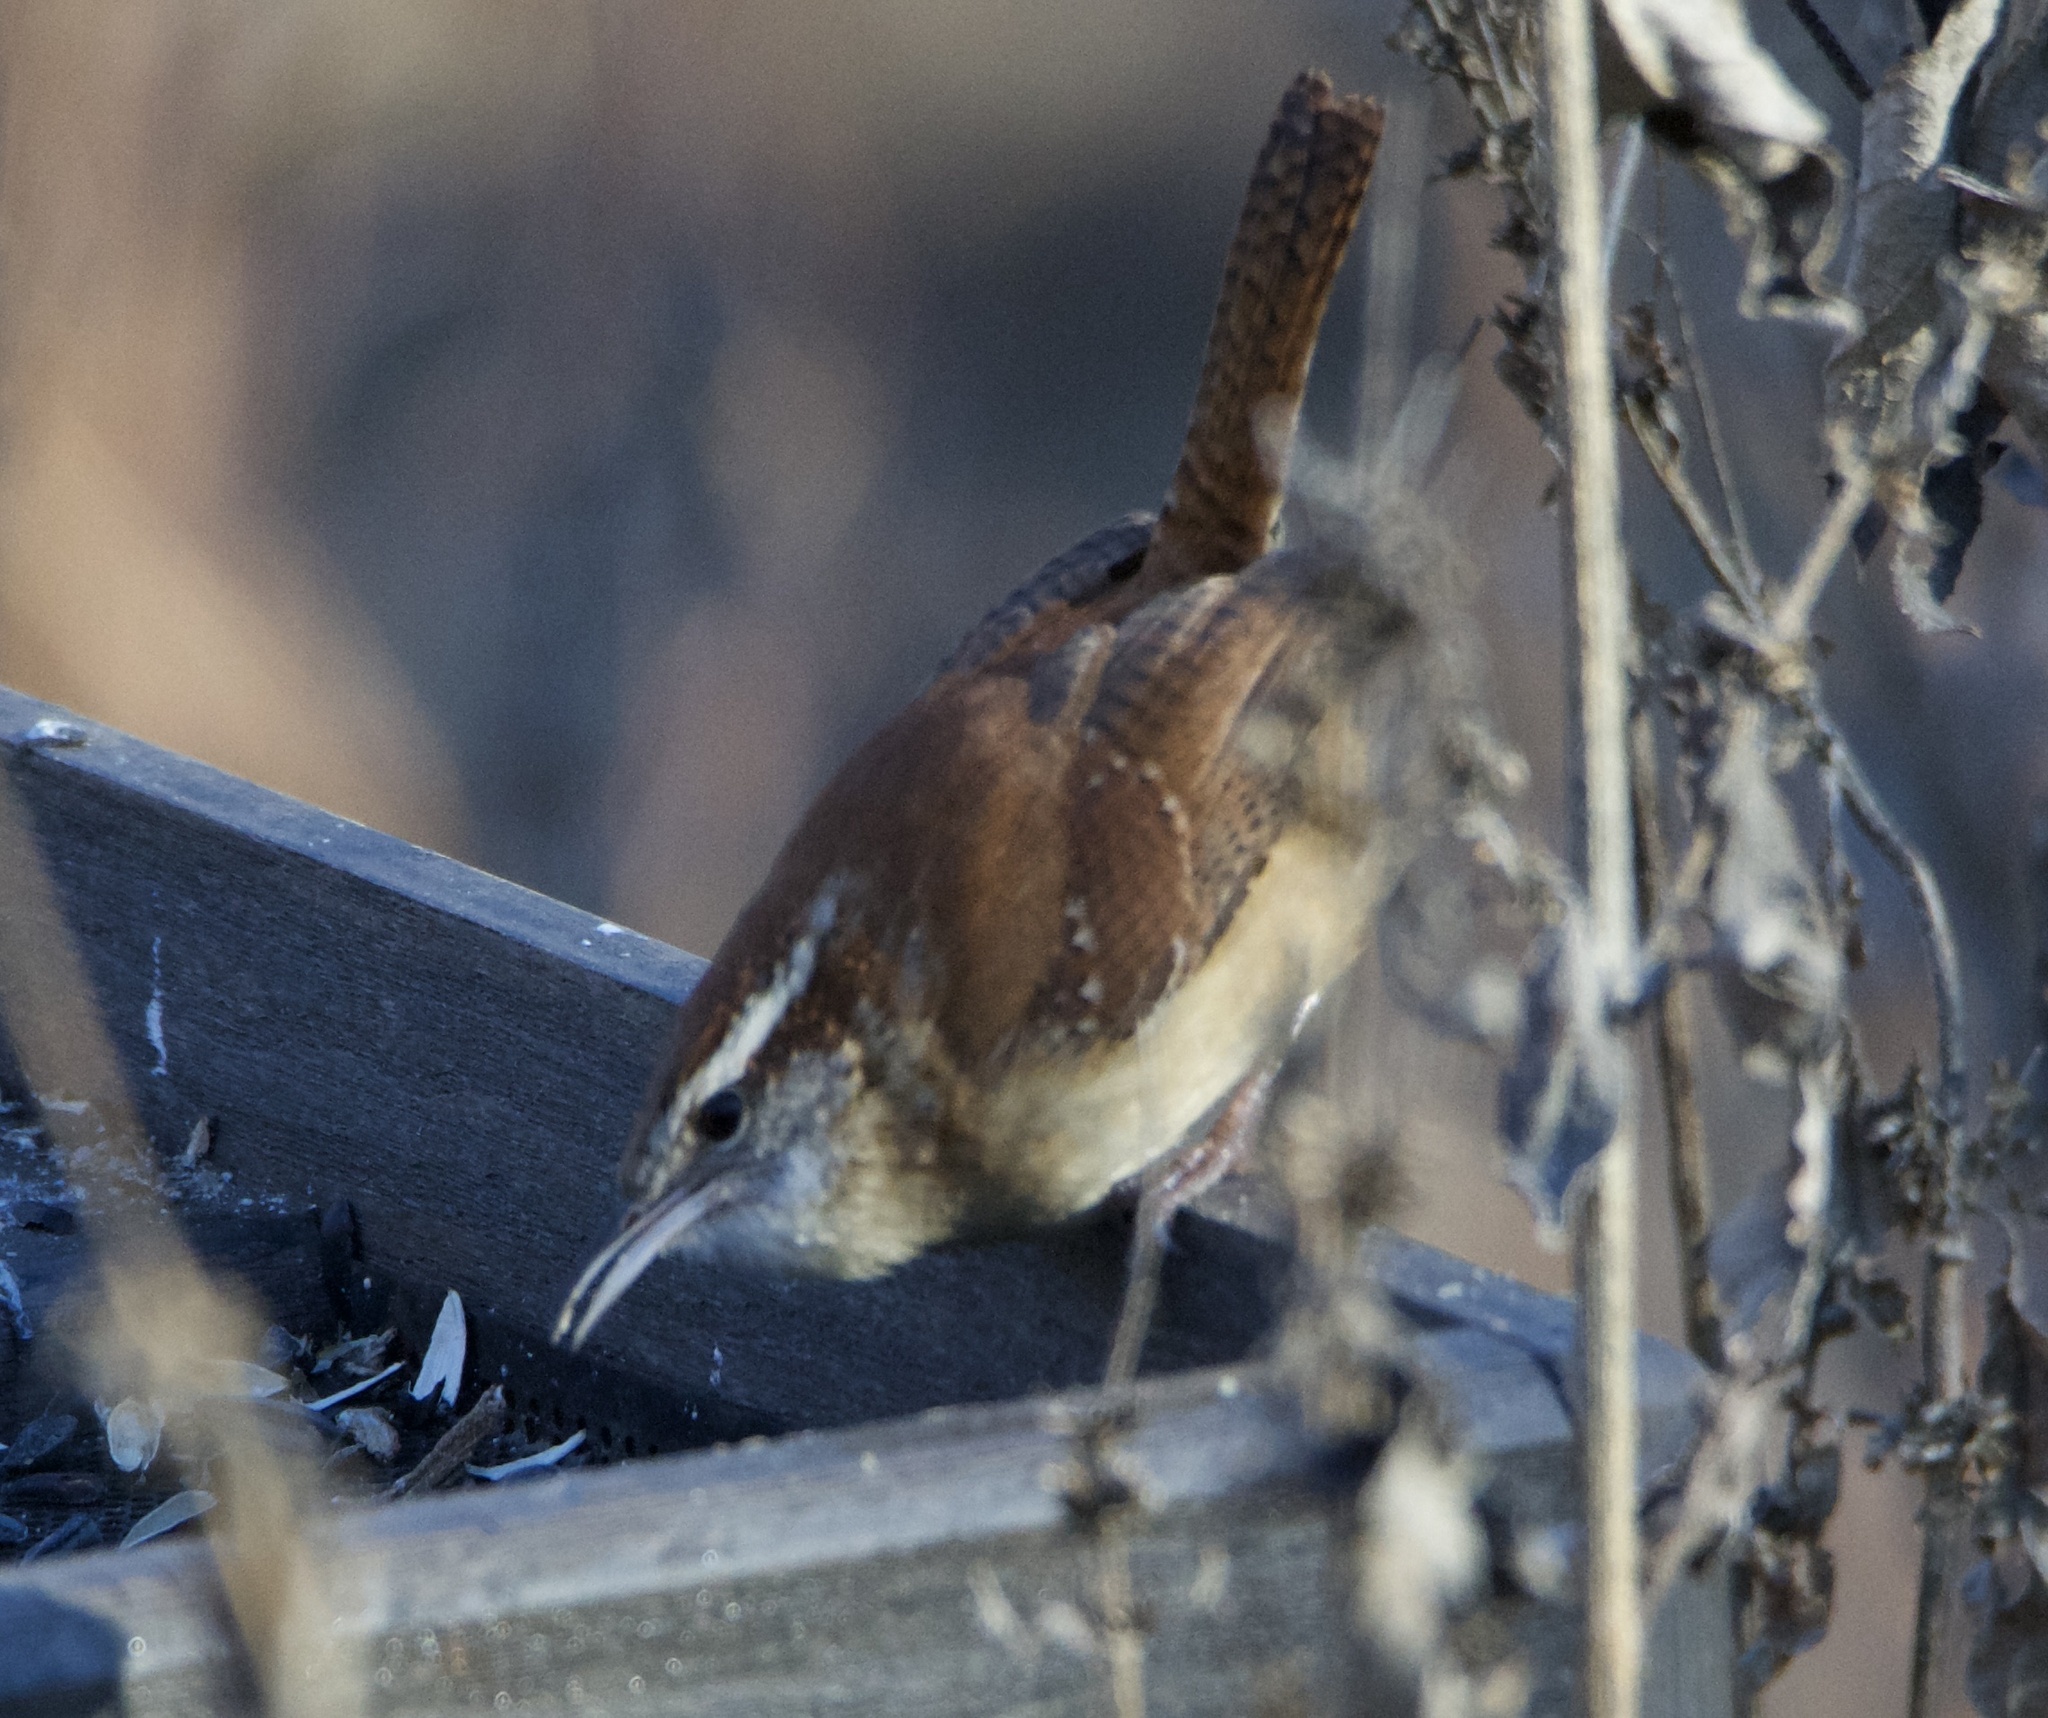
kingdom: Animalia
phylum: Chordata
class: Aves
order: Passeriformes
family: Troglodytidae
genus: Thryothorus
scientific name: Thryothorus ludovicianus
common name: Carolina wren
